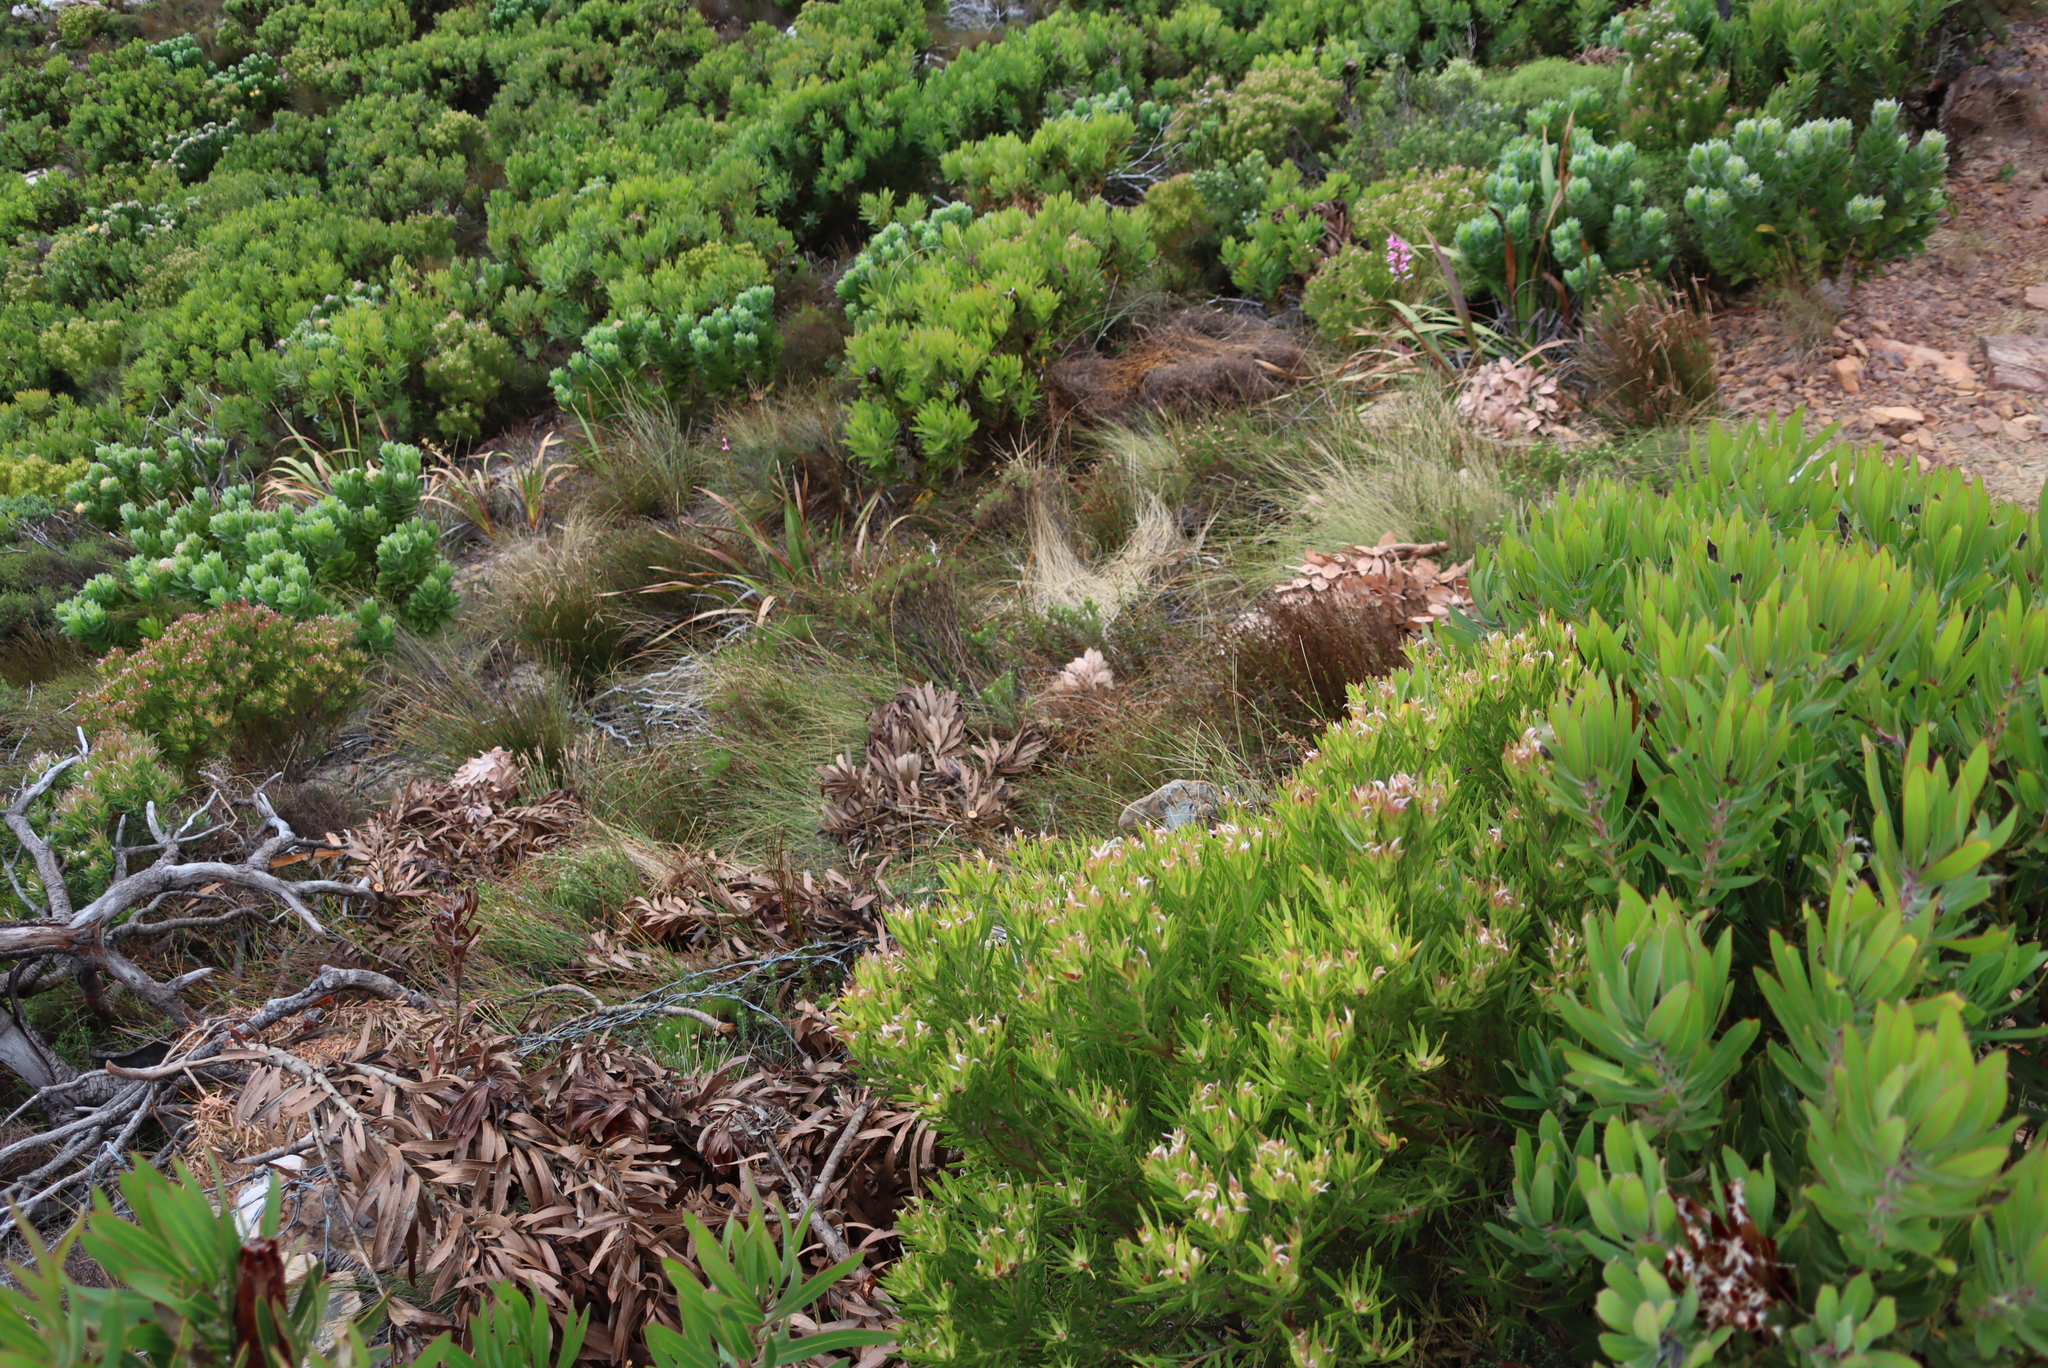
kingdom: Plantae
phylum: Tracheophyta
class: Magnoliopsida
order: Proteales
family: Proteaceae
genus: Leucadendron
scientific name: Leucadendron xanthoconus
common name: Sickle-leaf conebush
